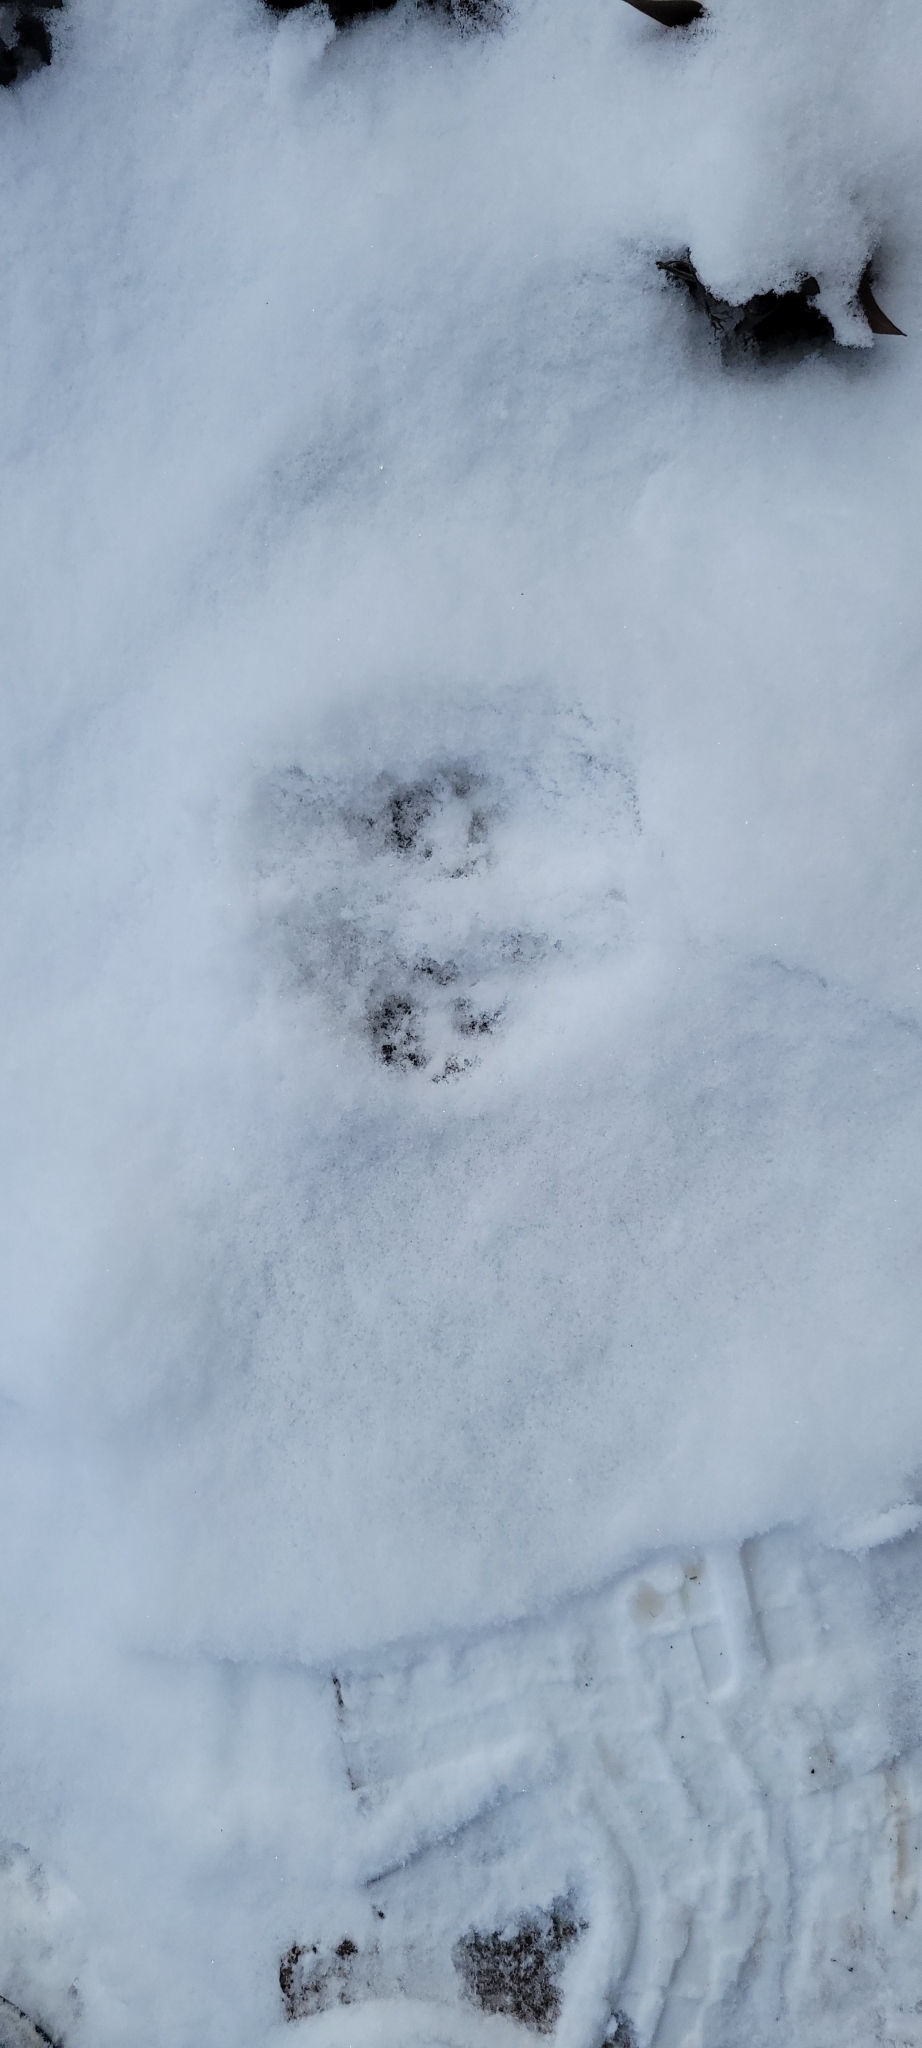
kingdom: Animalia
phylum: Chordata
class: Mammalia
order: Carnivora
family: Felidae
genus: Felis
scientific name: Felis catus
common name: Domestic cat
